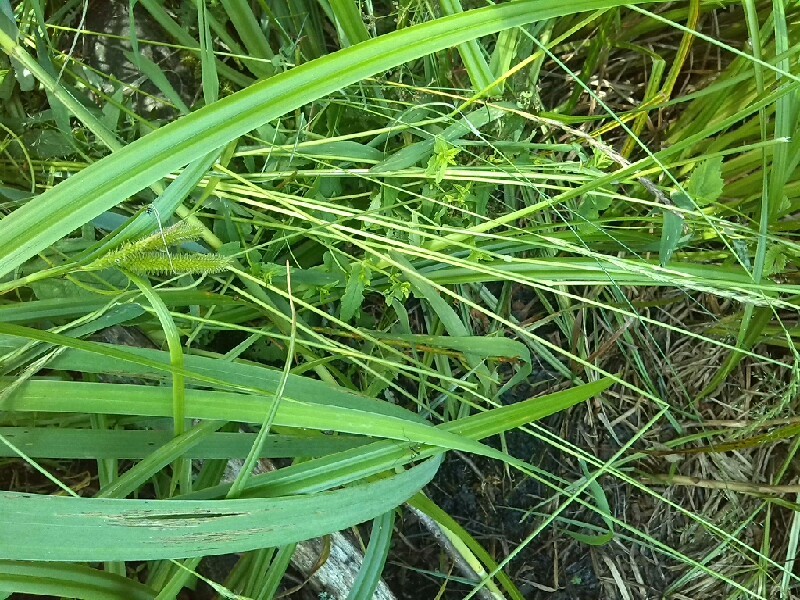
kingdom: Plantae
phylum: Tracheophyta
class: Liliopsida
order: Poales
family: Poaceae
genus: Elymus
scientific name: Elymus caninus
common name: Bearded couch
